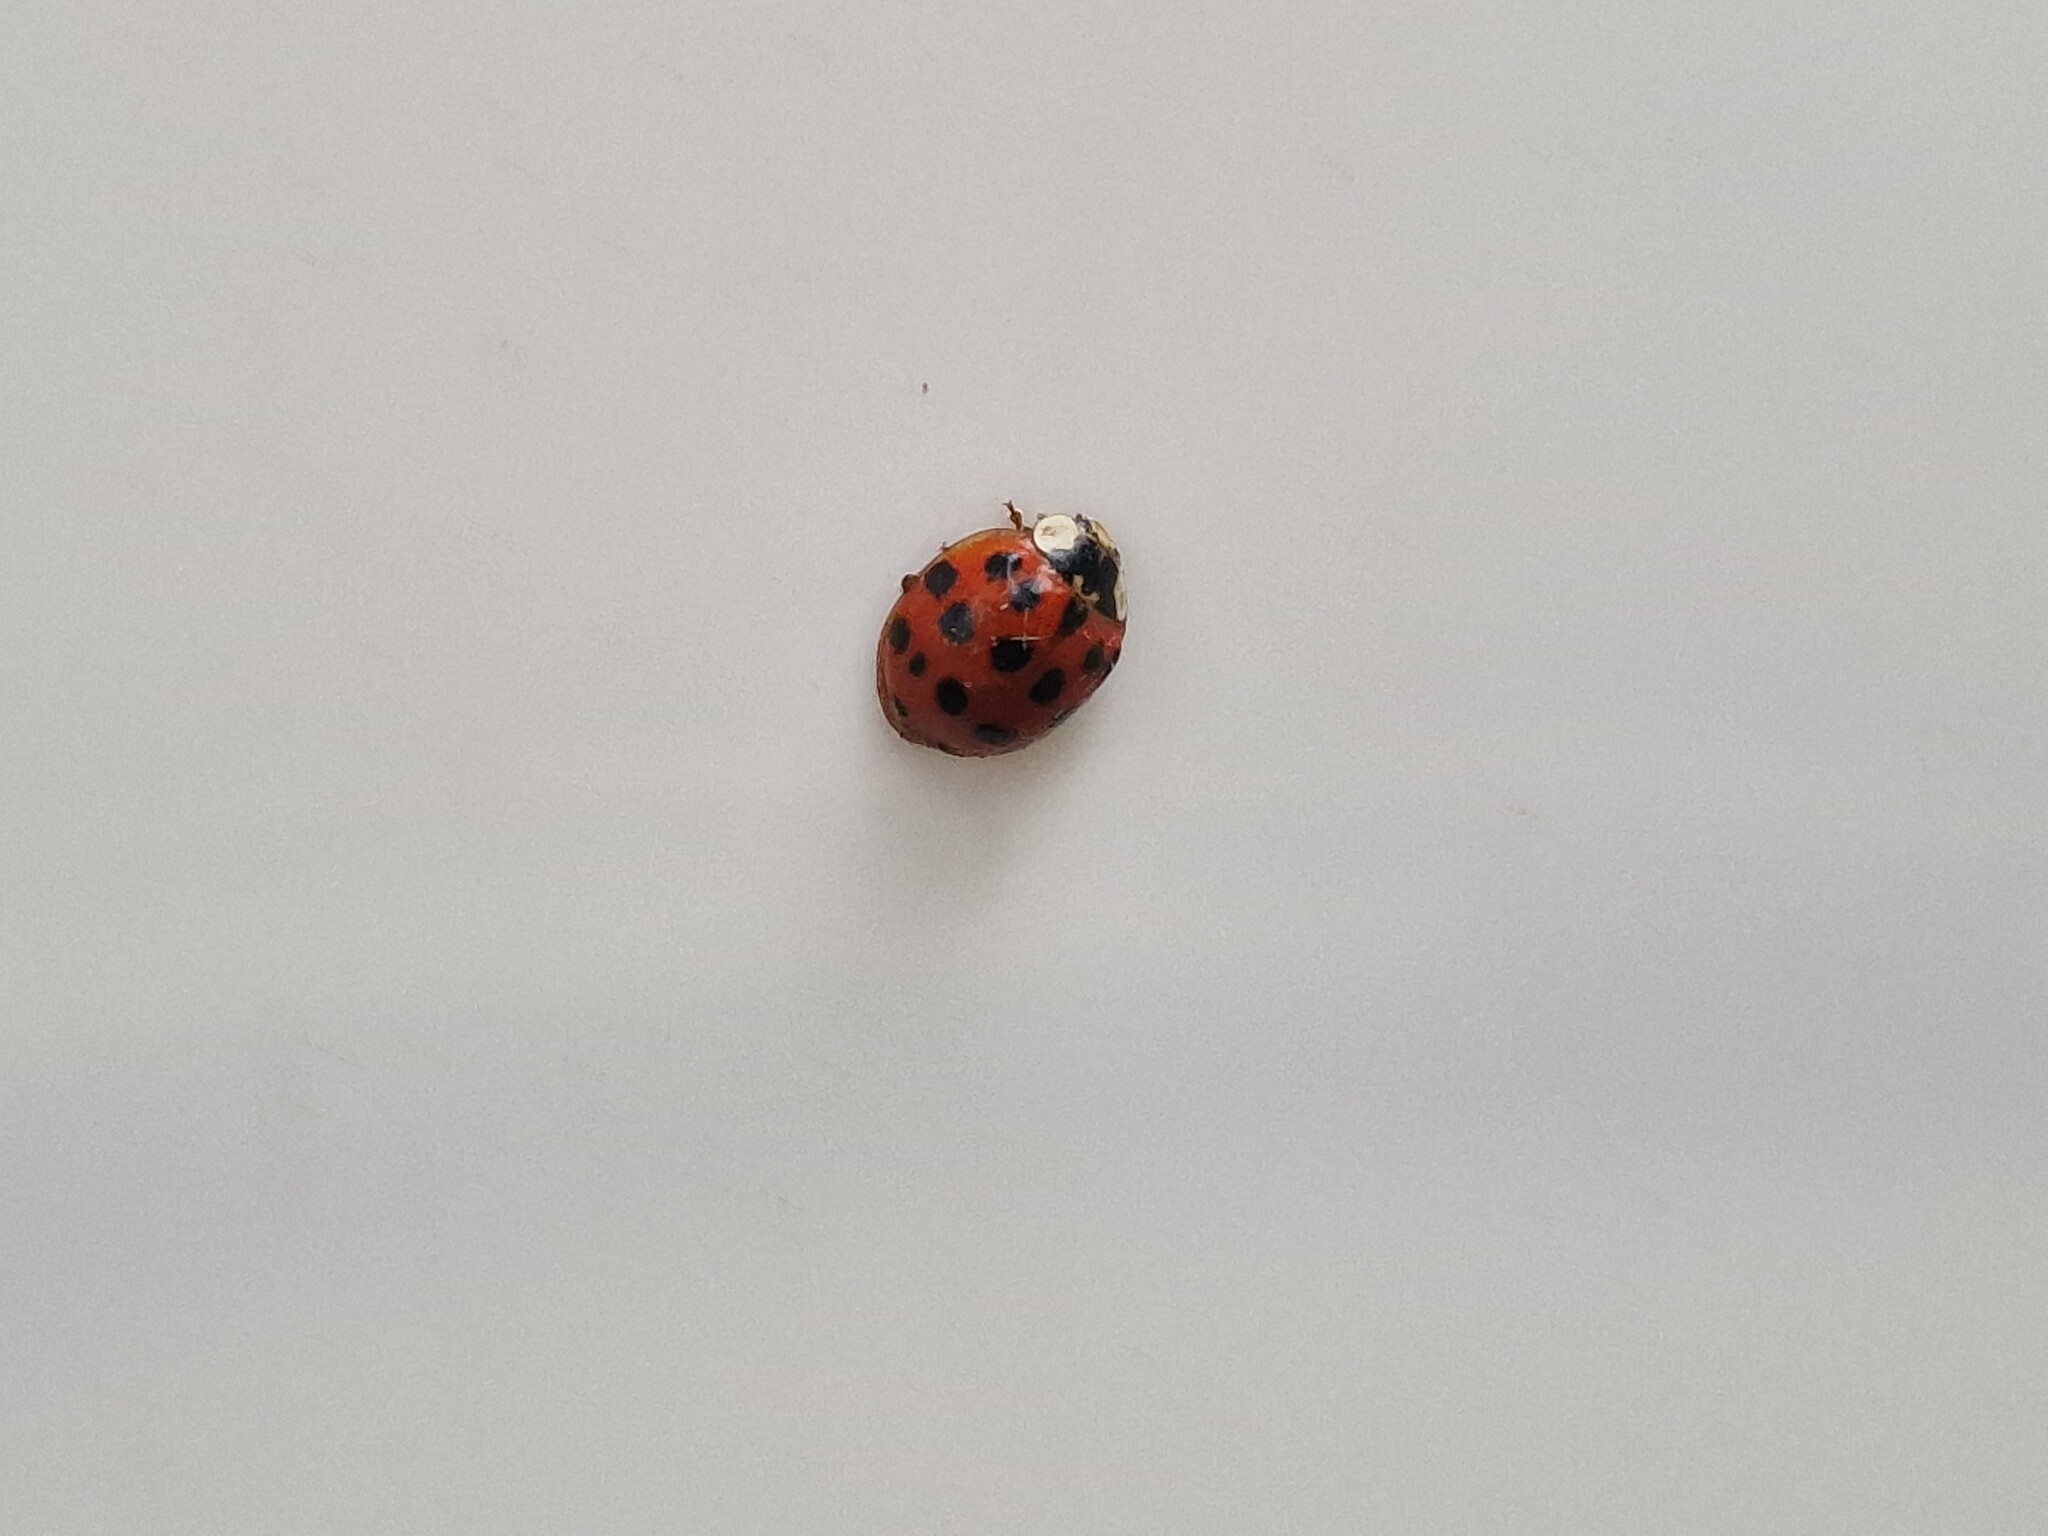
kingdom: Animalia
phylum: Arthropoda
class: Insecta
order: Coleoptera
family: Coccinellidae
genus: Harmonia
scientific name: Harmonia axyridis
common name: Harlequin ladybird
